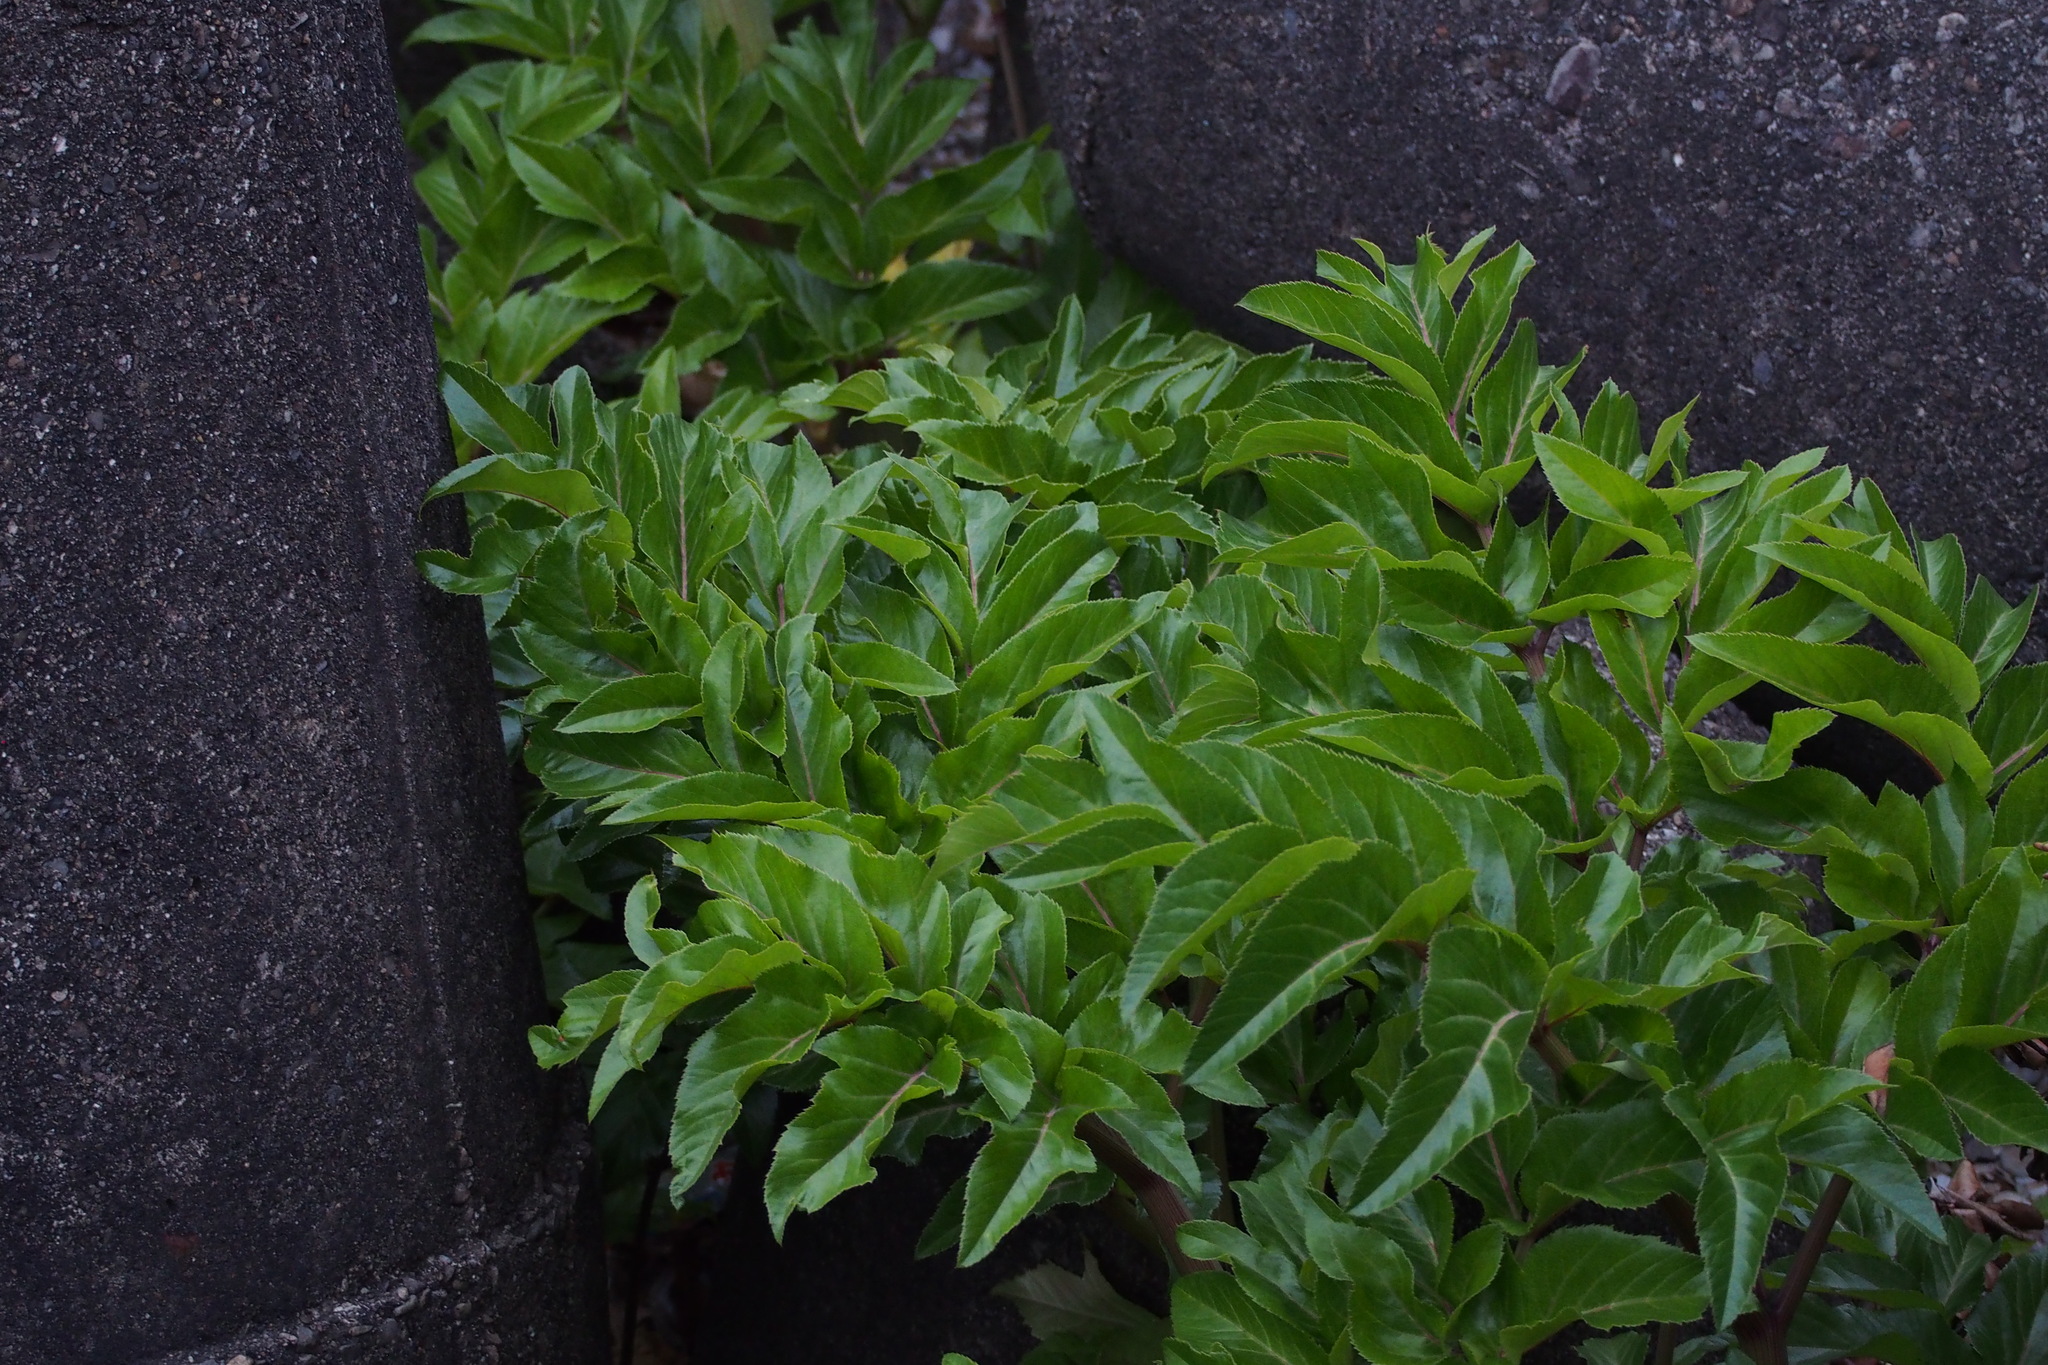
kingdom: Plantae
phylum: Tracheophyta
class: Magnoliopsida
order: Apiales
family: Apiaceae
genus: Angelica
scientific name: Angelica japonica
